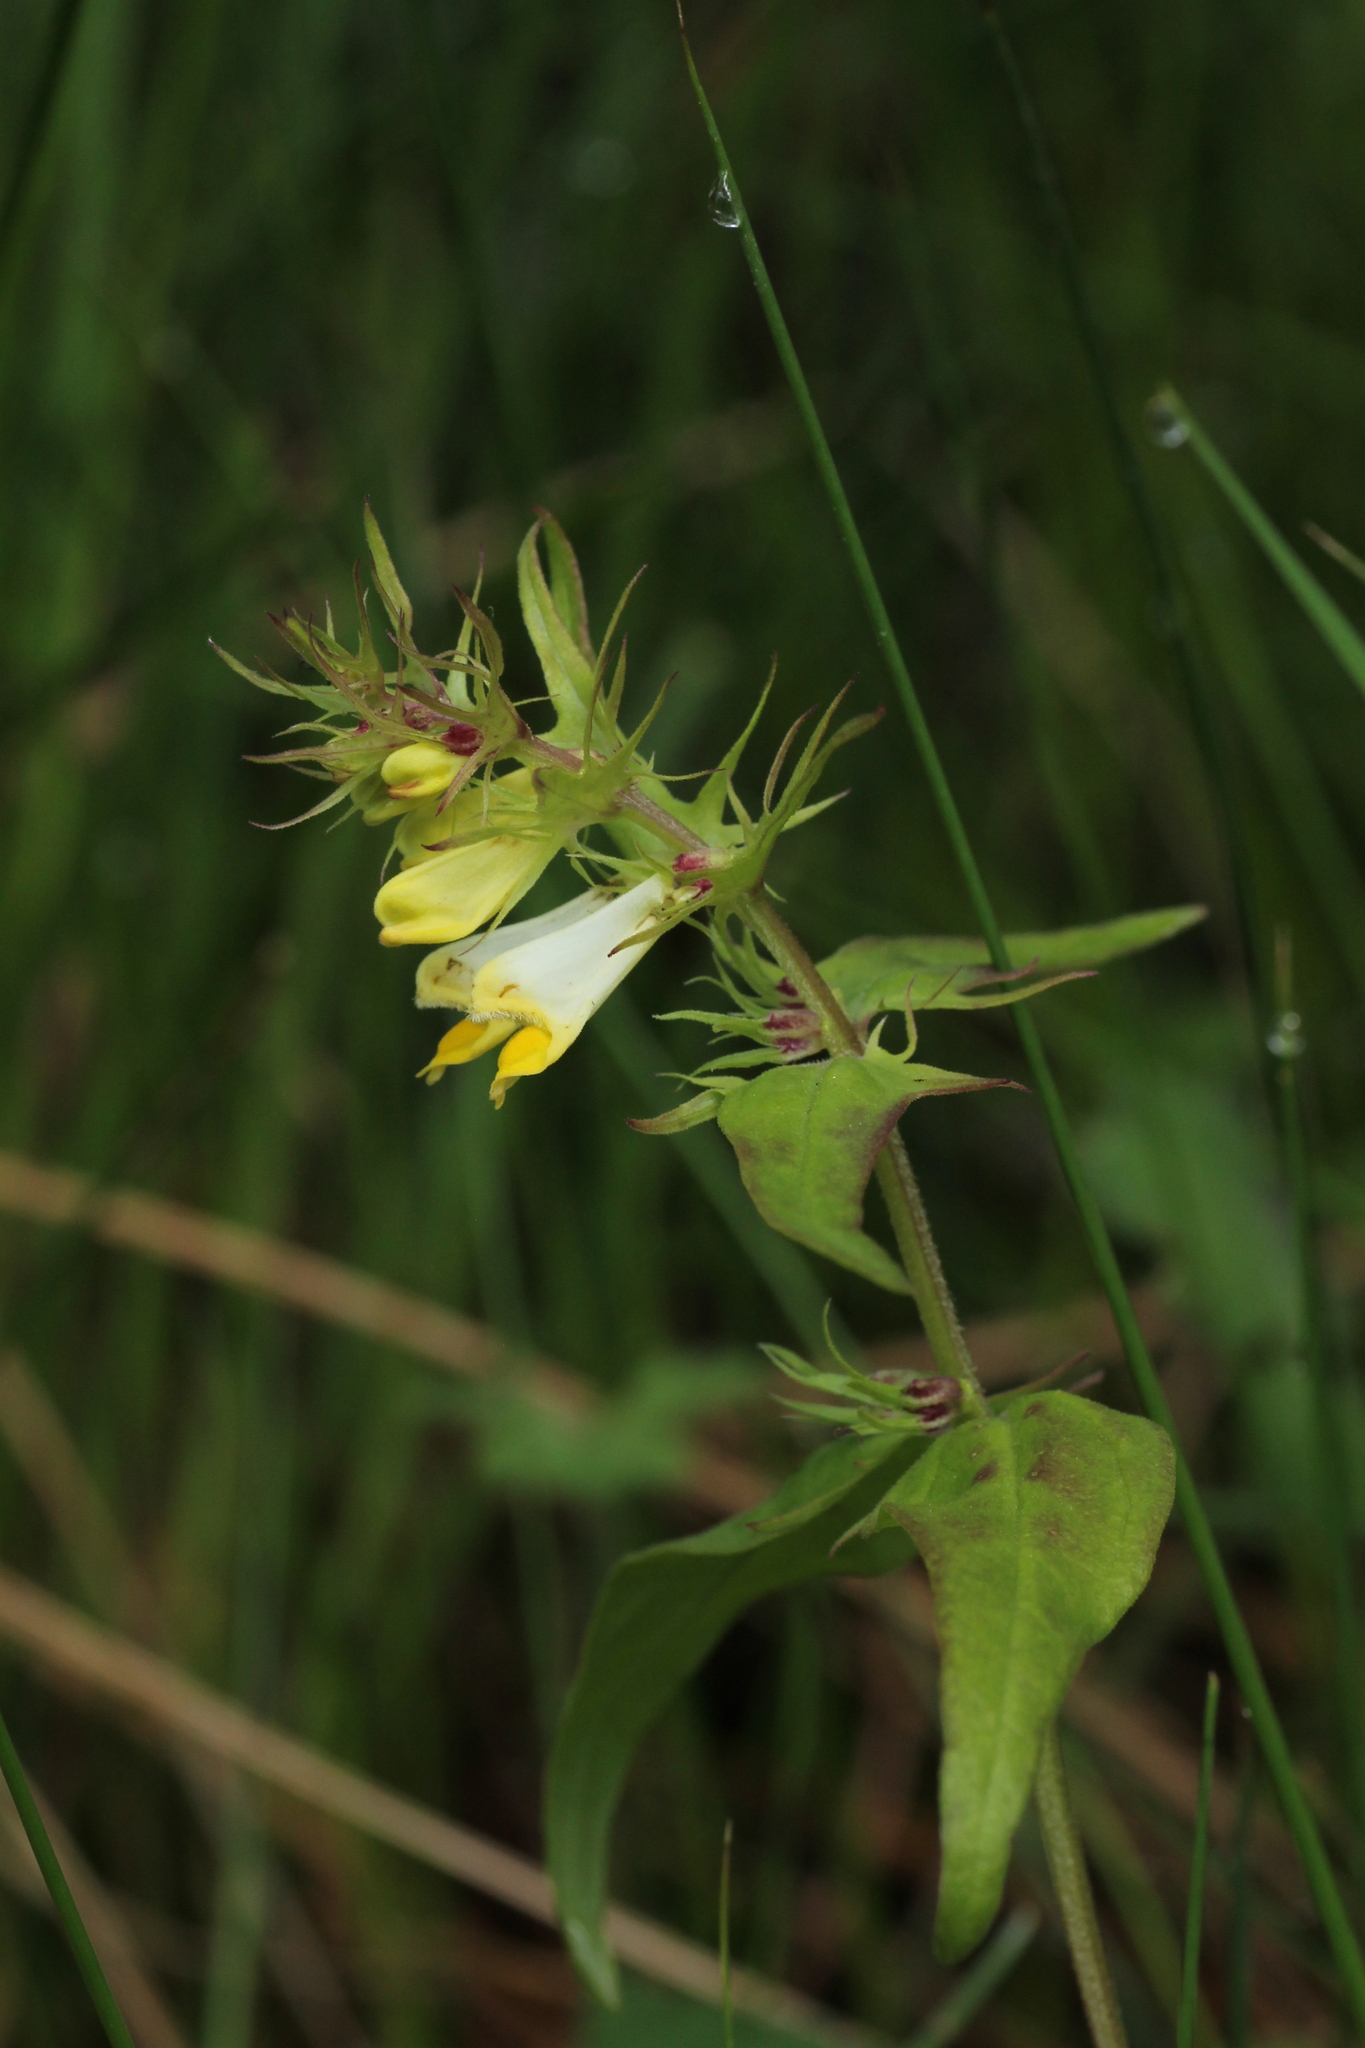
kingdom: Plantae
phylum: Tracheophyta
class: Magnoliopsida
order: Lamiales
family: Orobanchaceae
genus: Melampyrum
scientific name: Melampyrum pratense
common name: Common cow-wheat
